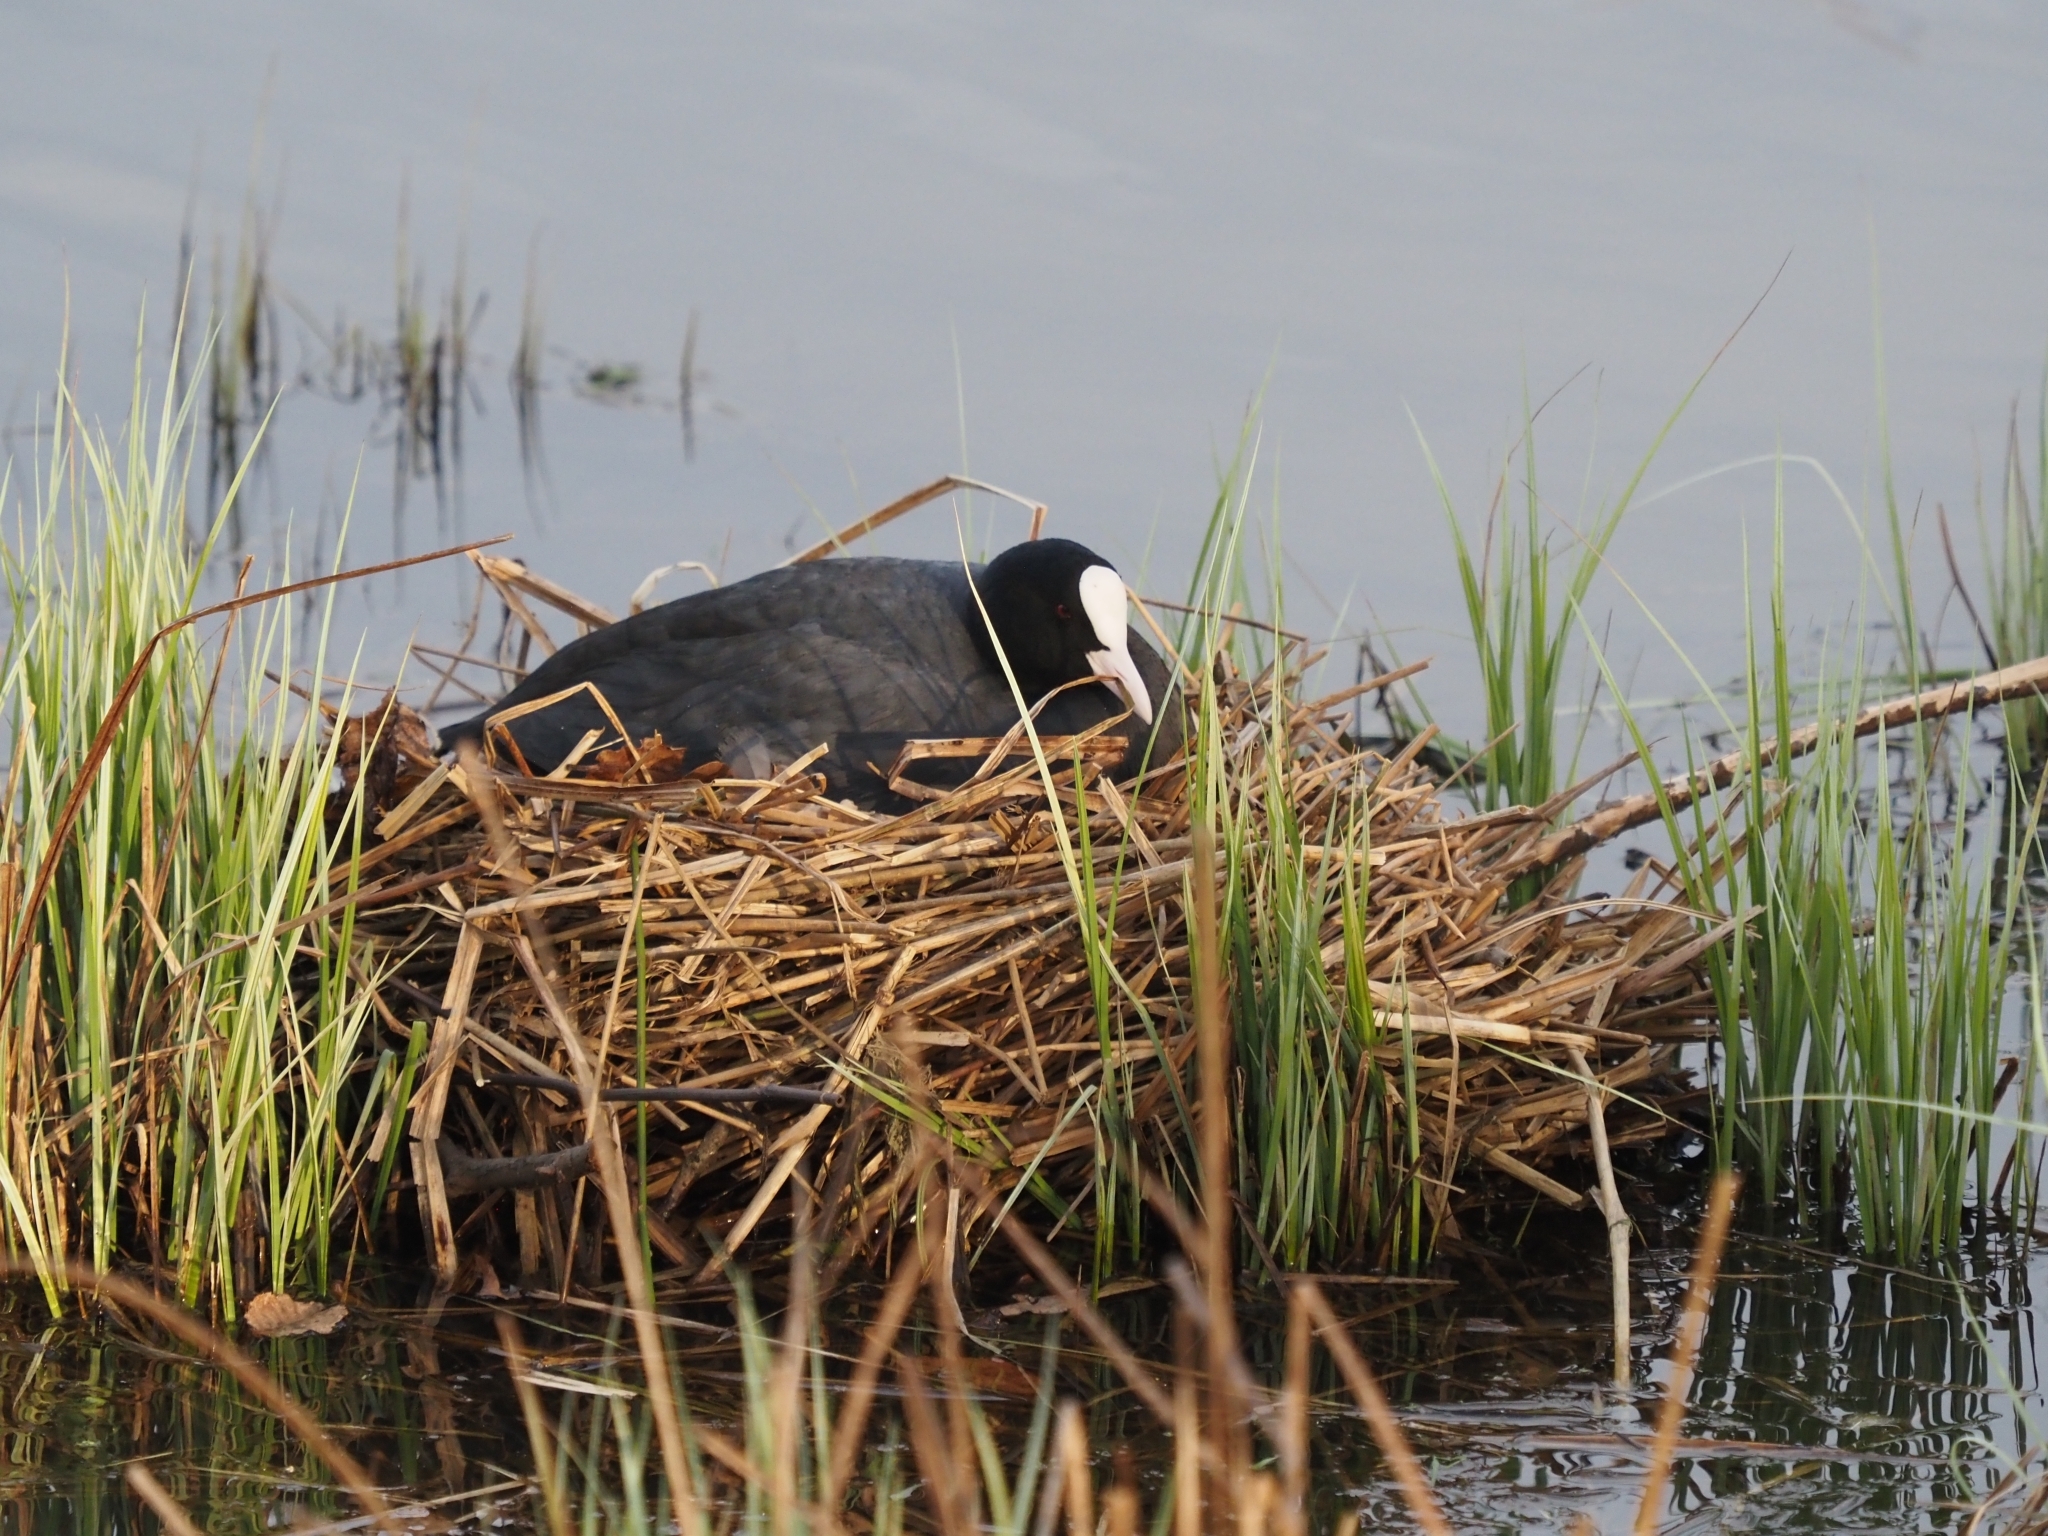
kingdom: Animalia
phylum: Chordata
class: Aves
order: Gruiformes
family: Rallidae
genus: Fulica
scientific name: Fulica atra
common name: Eurasian coot
